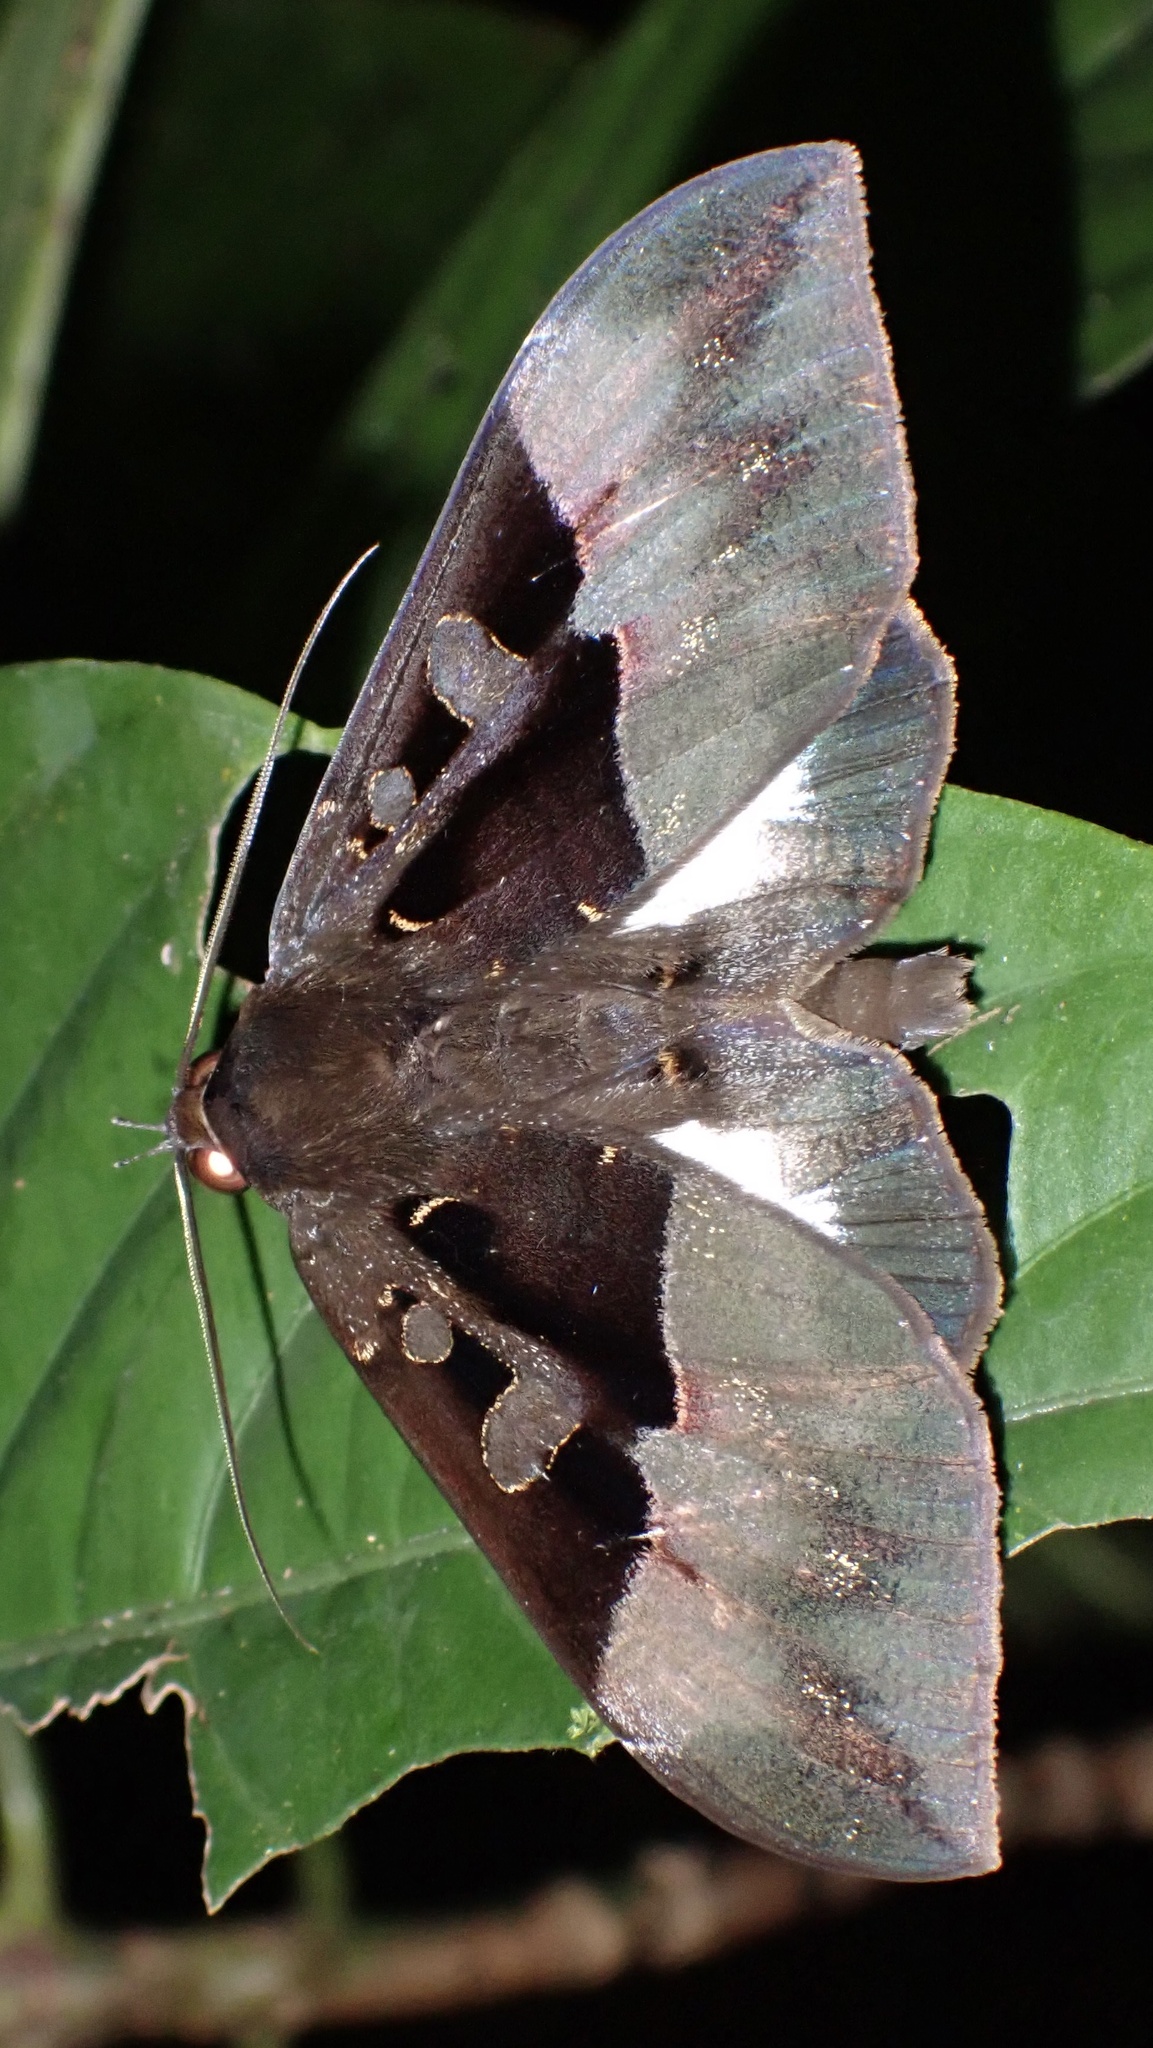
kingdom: Animalia
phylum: Arthropoda
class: Insecta
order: Lepidoptera
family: Erebidae
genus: Ischyja
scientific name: Ischyja ebusa
